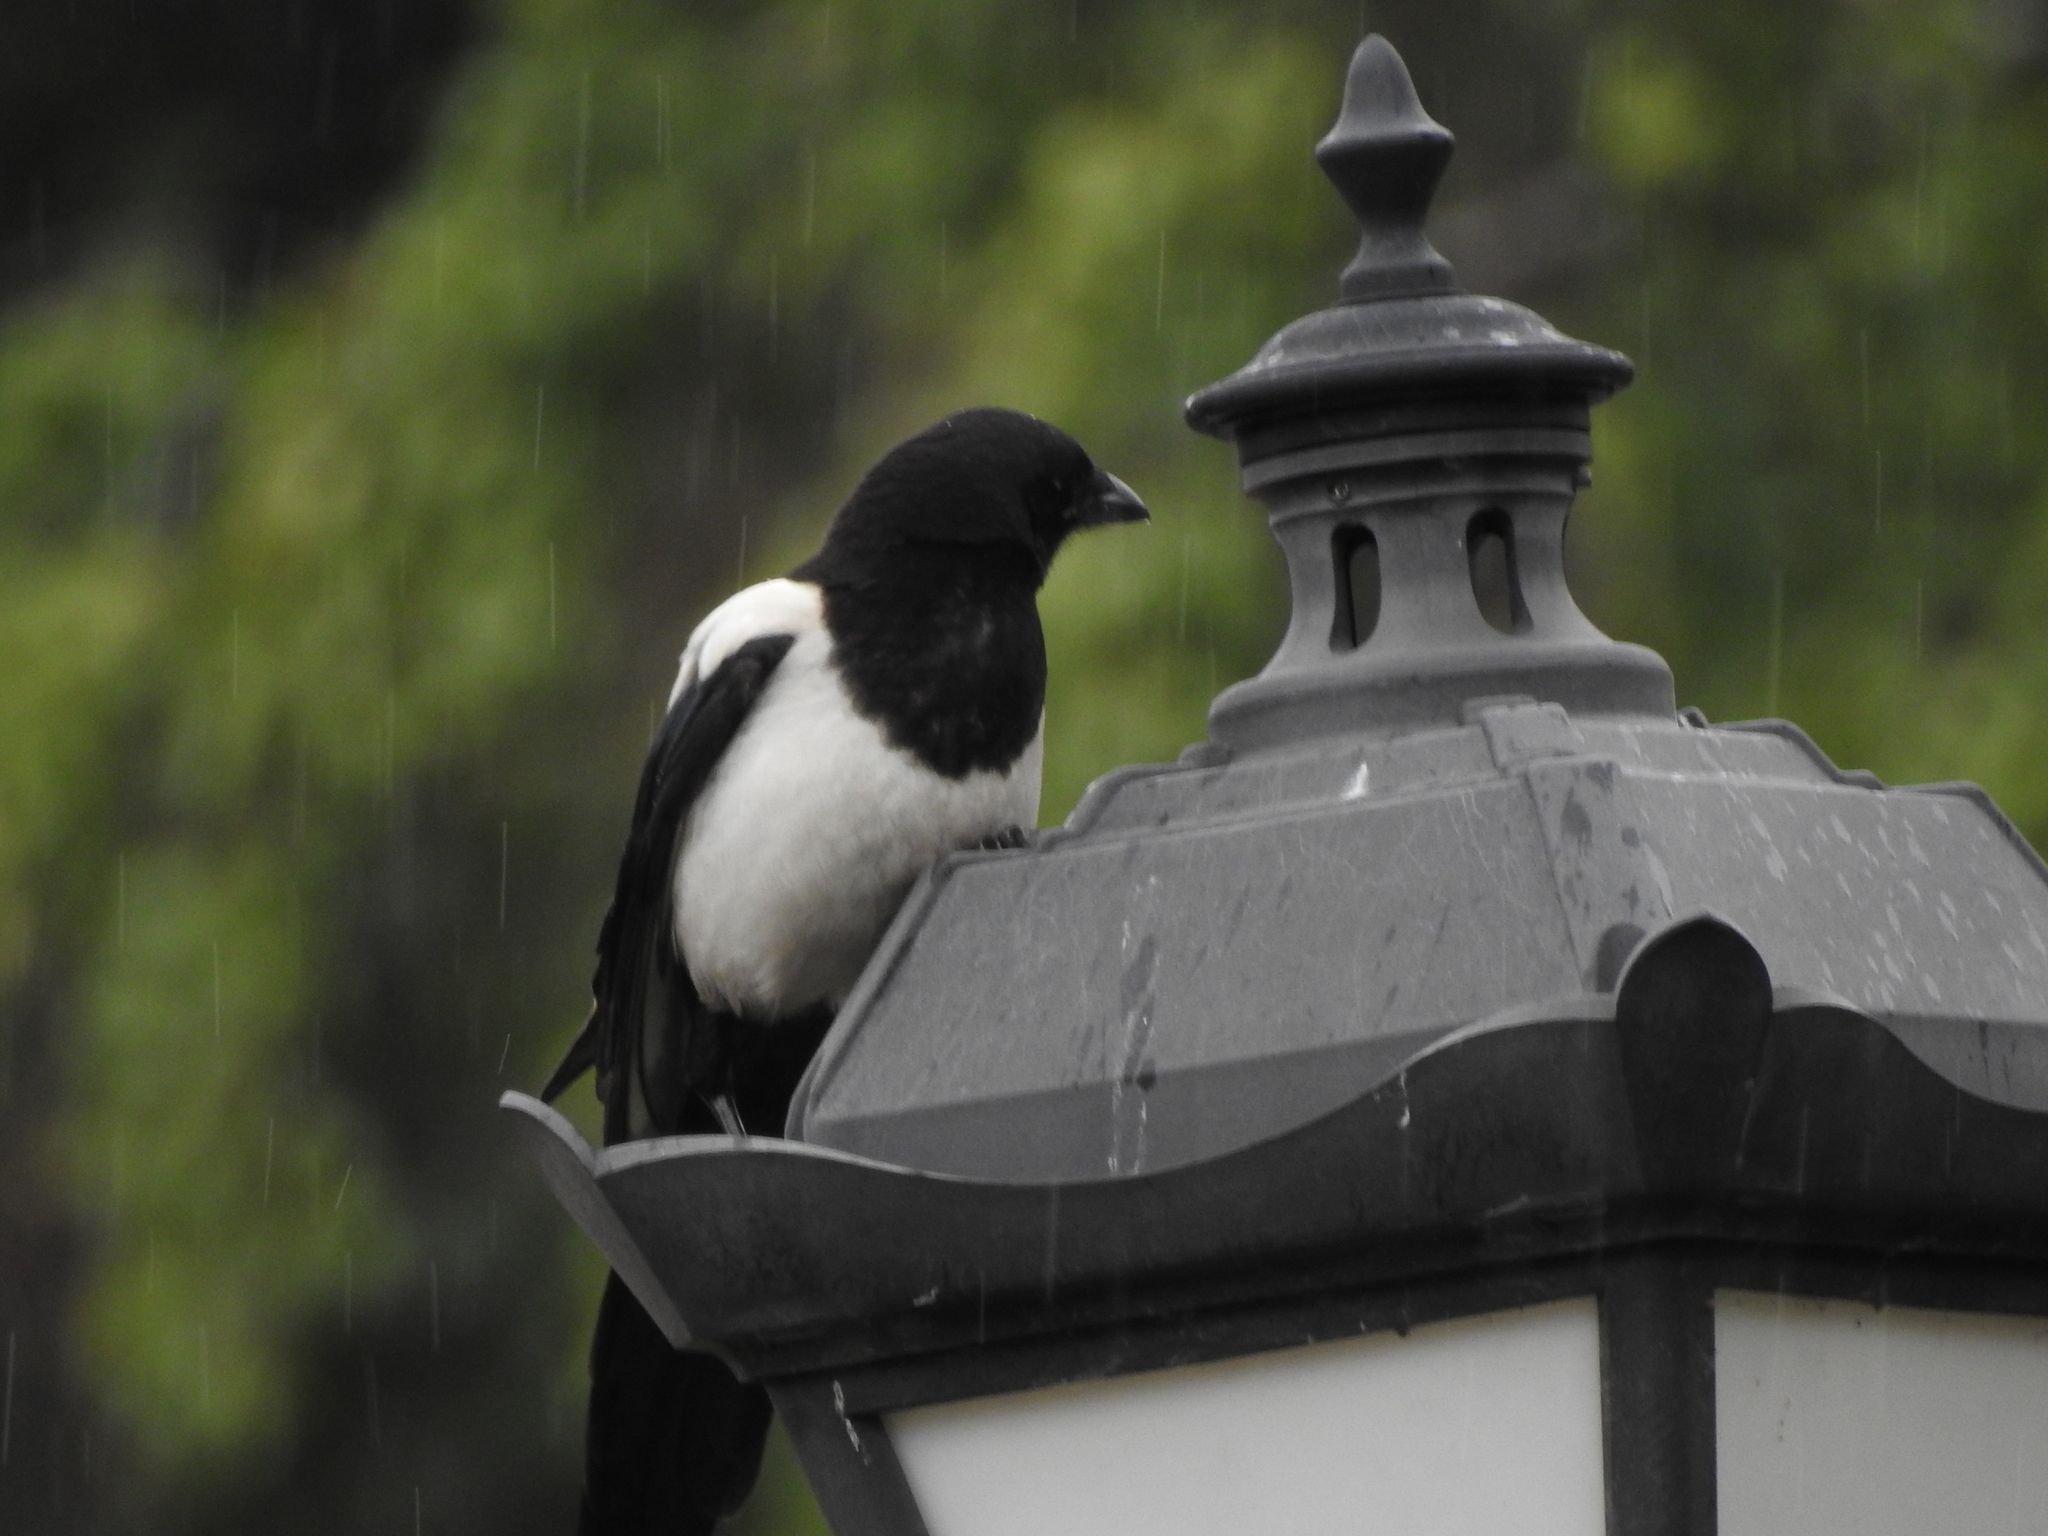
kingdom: Animalia
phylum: Chordata
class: Aves
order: Passeriformes
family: Corvidae
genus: Pica
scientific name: Pica pica
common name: Eurasian magpie
